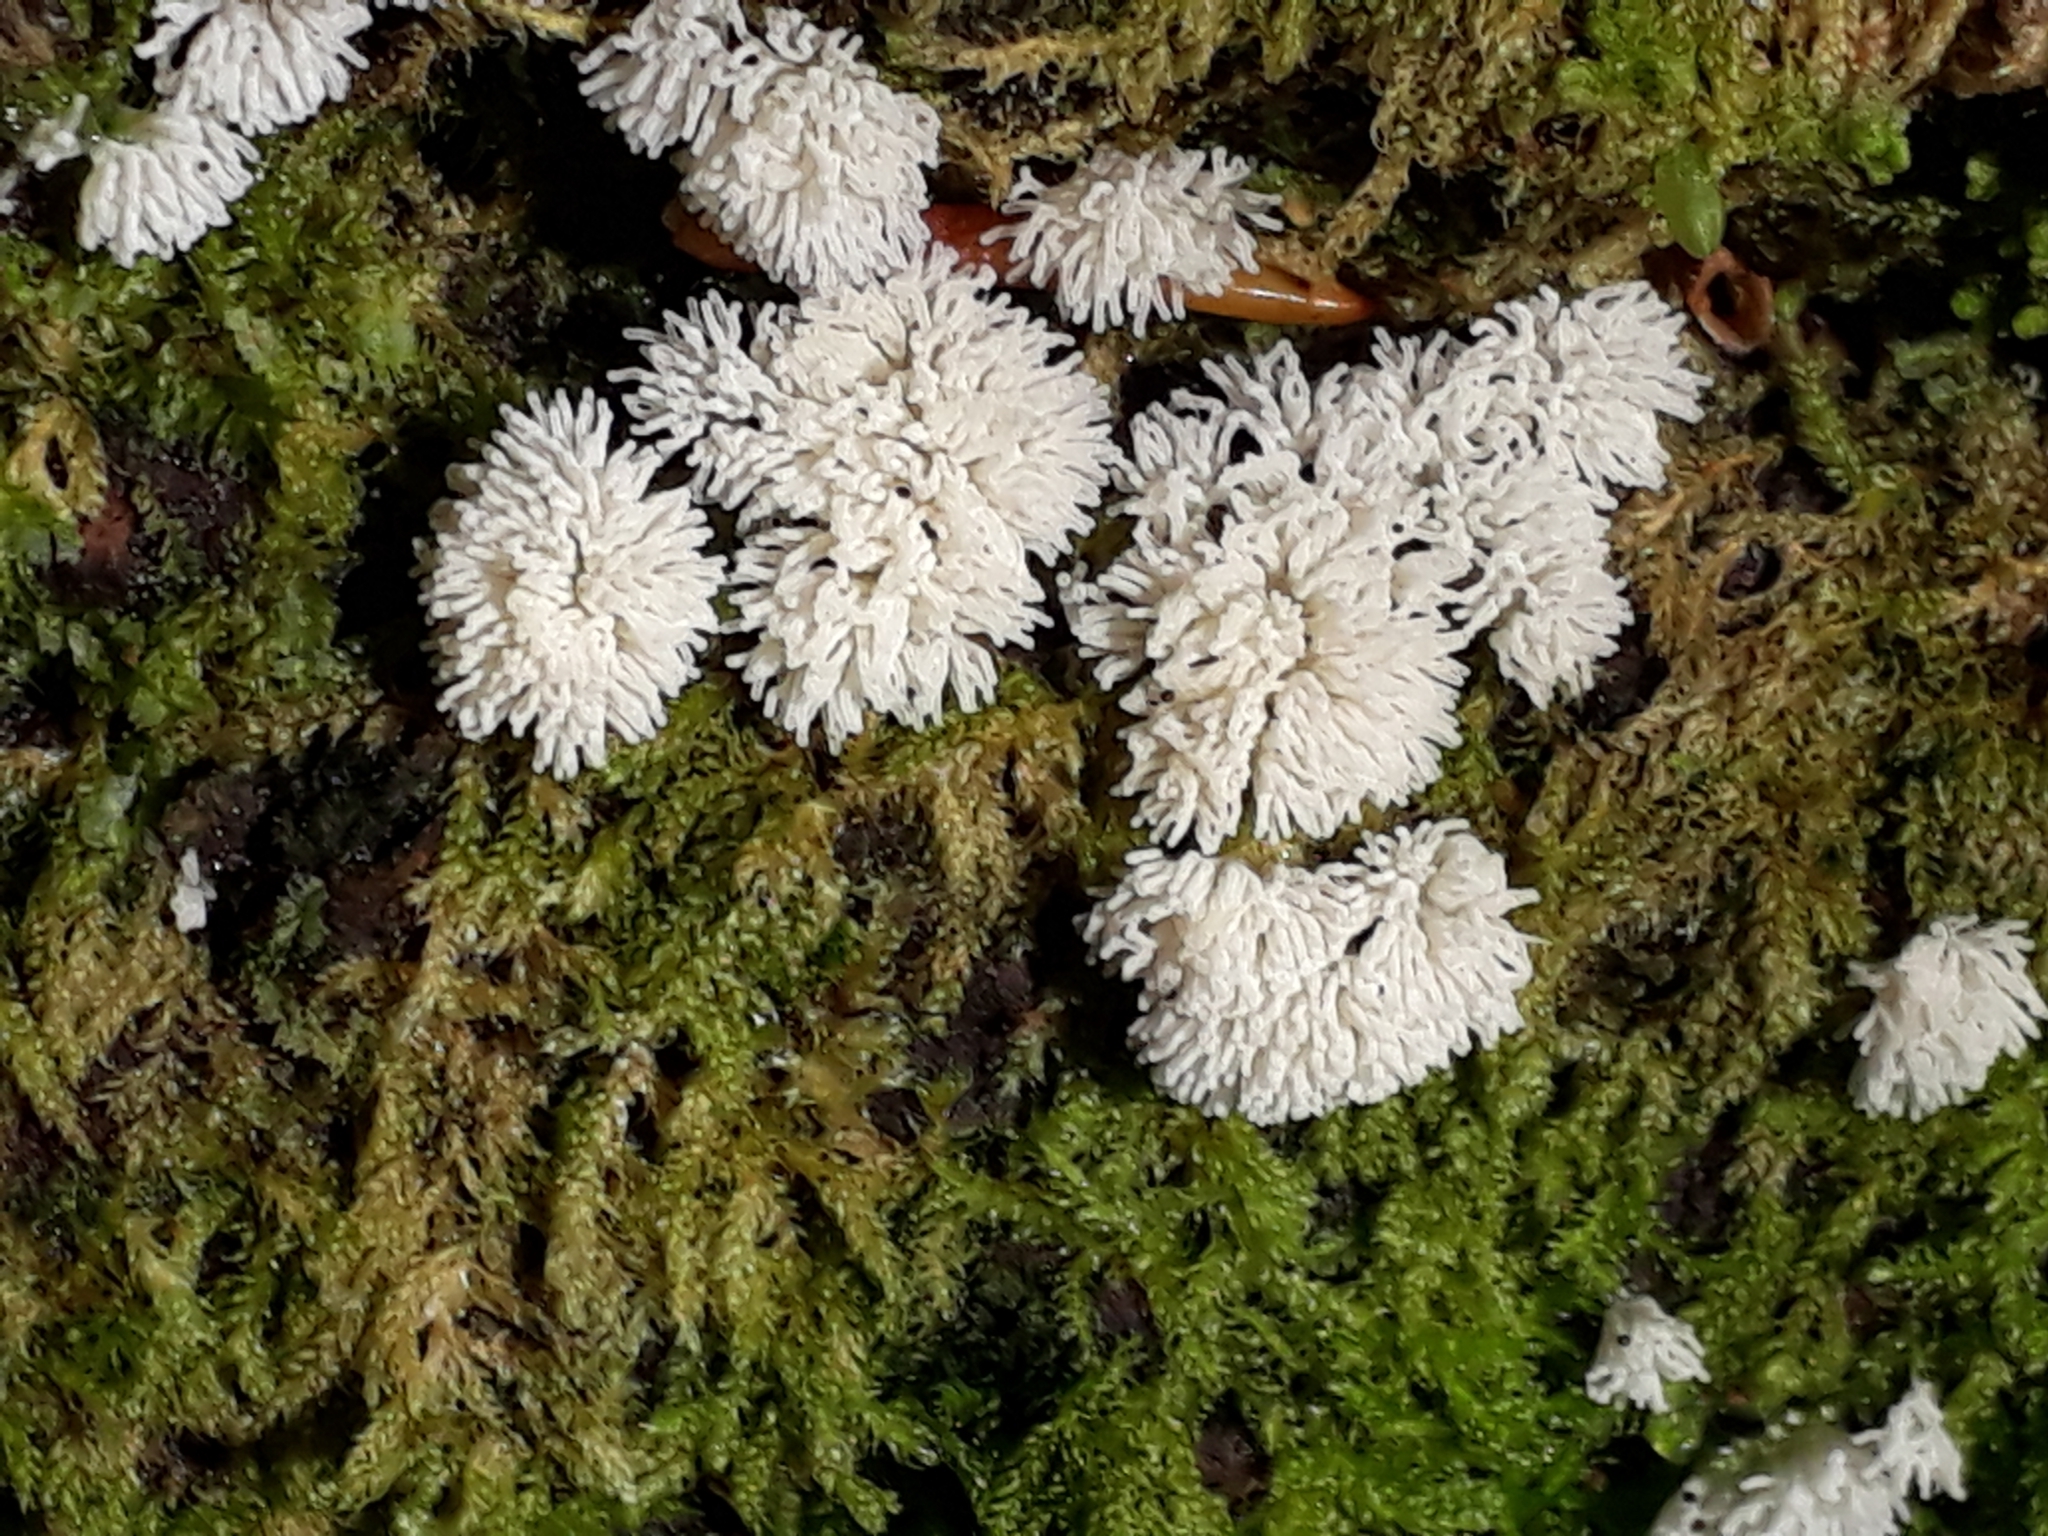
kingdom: Protozoa
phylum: Mycetozoa
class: Protosteliomycetes
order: Ceratiomyxales
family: Ceratiomyxaceae
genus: Ceratiomyxa
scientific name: Ceratiomyxa fruticulosa
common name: Honeycomb coral slime mold
